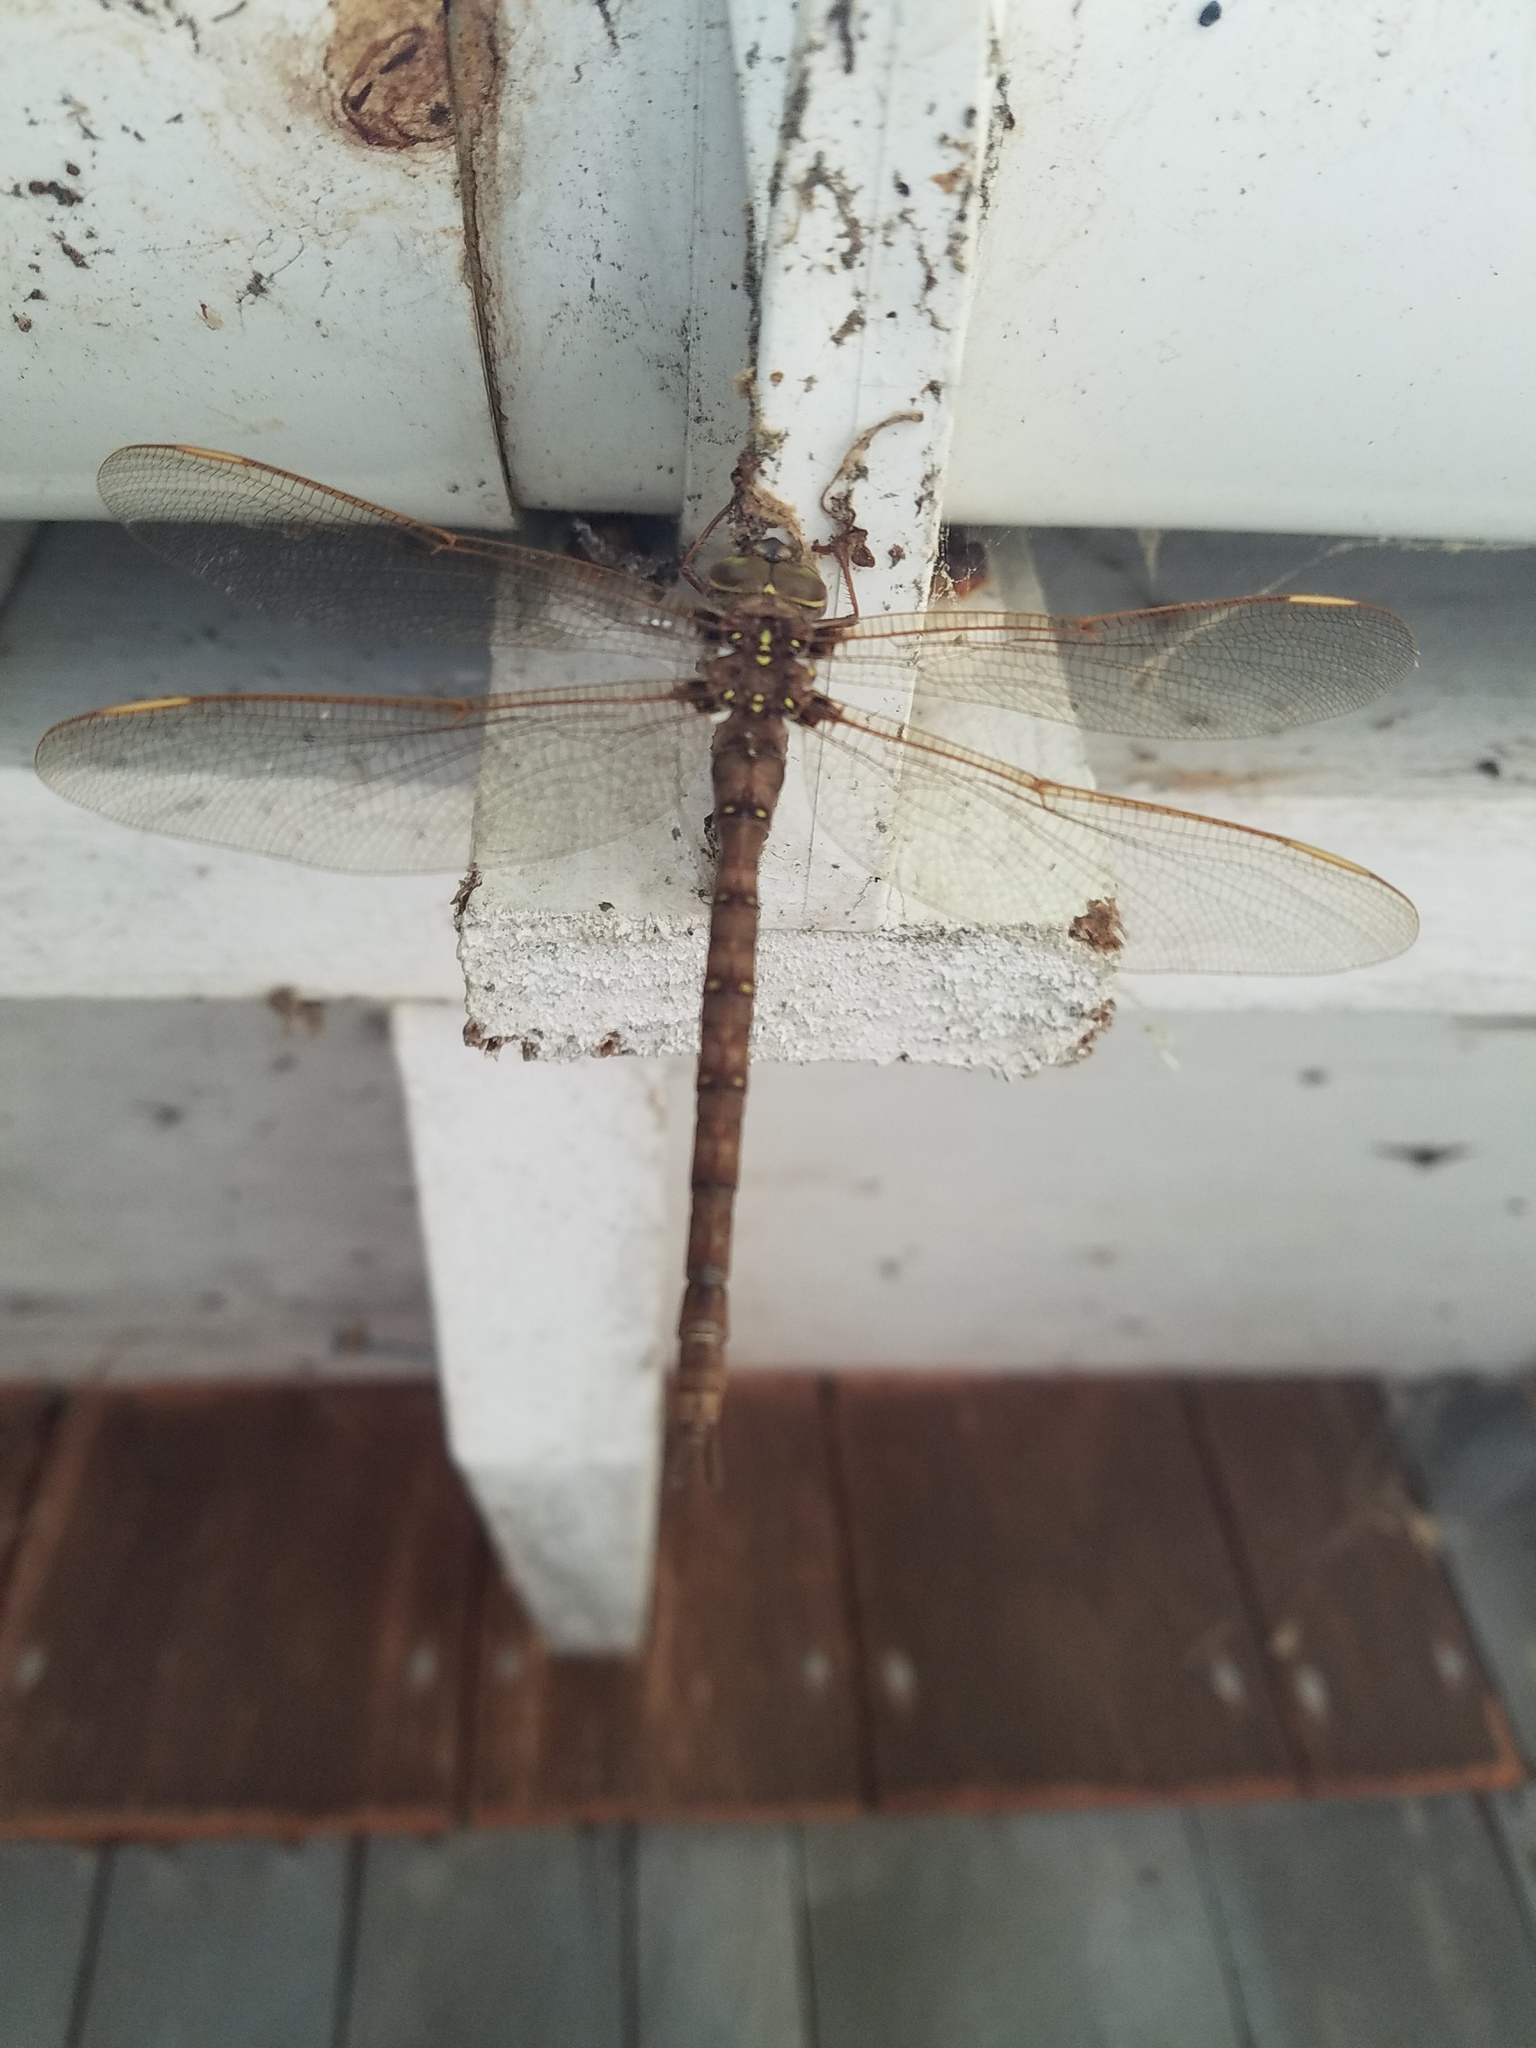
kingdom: Animalia
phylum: Arthropoda
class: Insecta
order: Odonata
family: Aeshnidae
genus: Boyeria
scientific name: Boyeria vinosa
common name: Fawn darner
